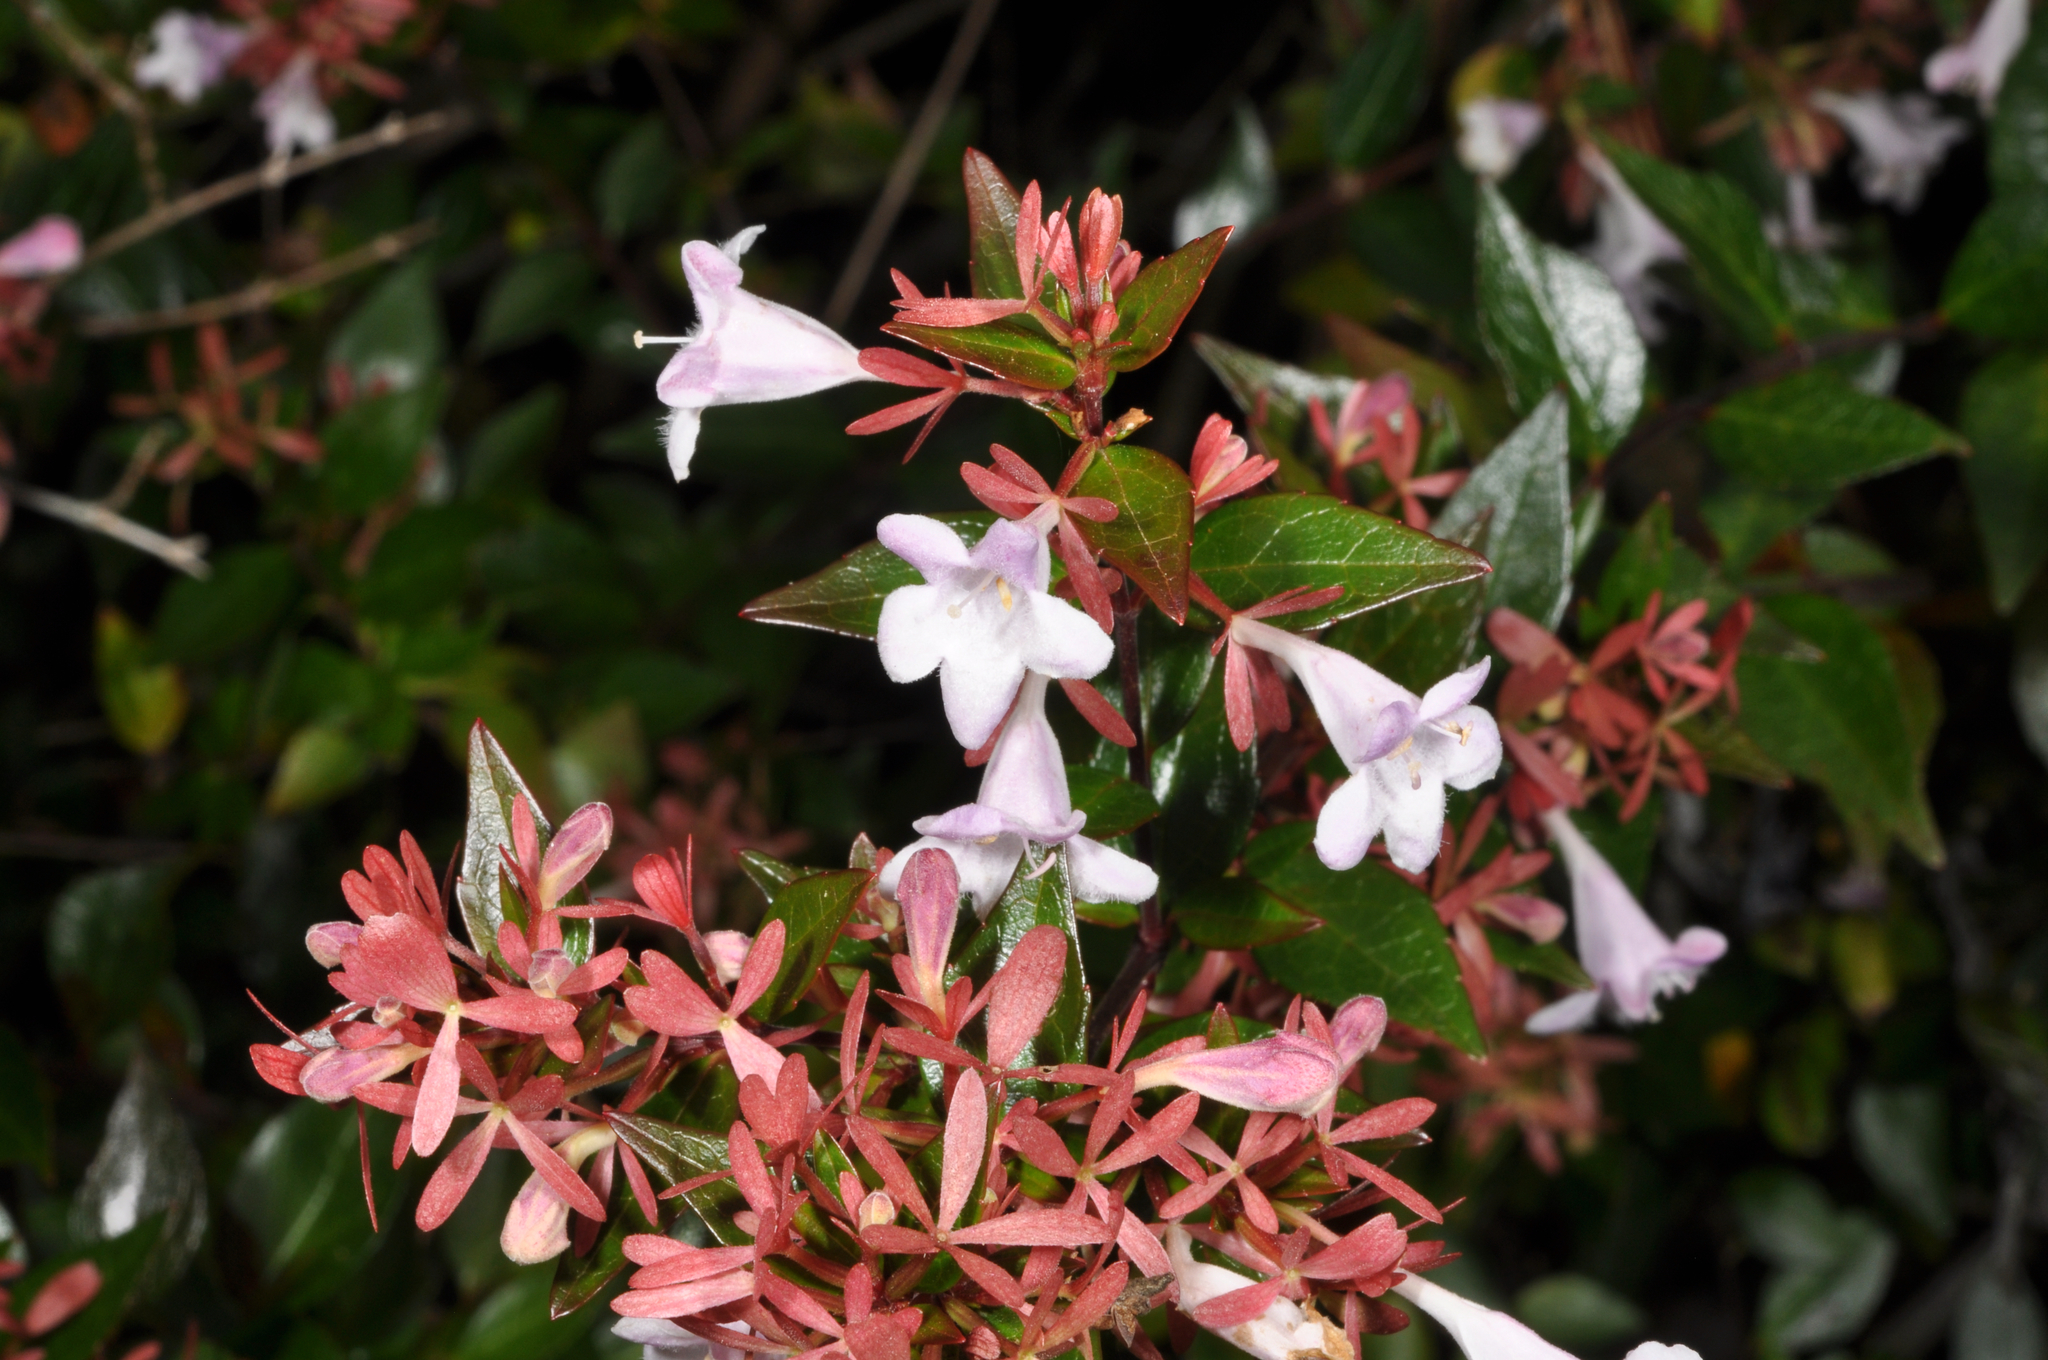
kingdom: Plantae
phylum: Tracheophyta
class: Magnoliopsida
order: Dipsacales
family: Caprifoliaceae
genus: Abelia
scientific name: Abelia chinensis
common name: Chinese abelia
